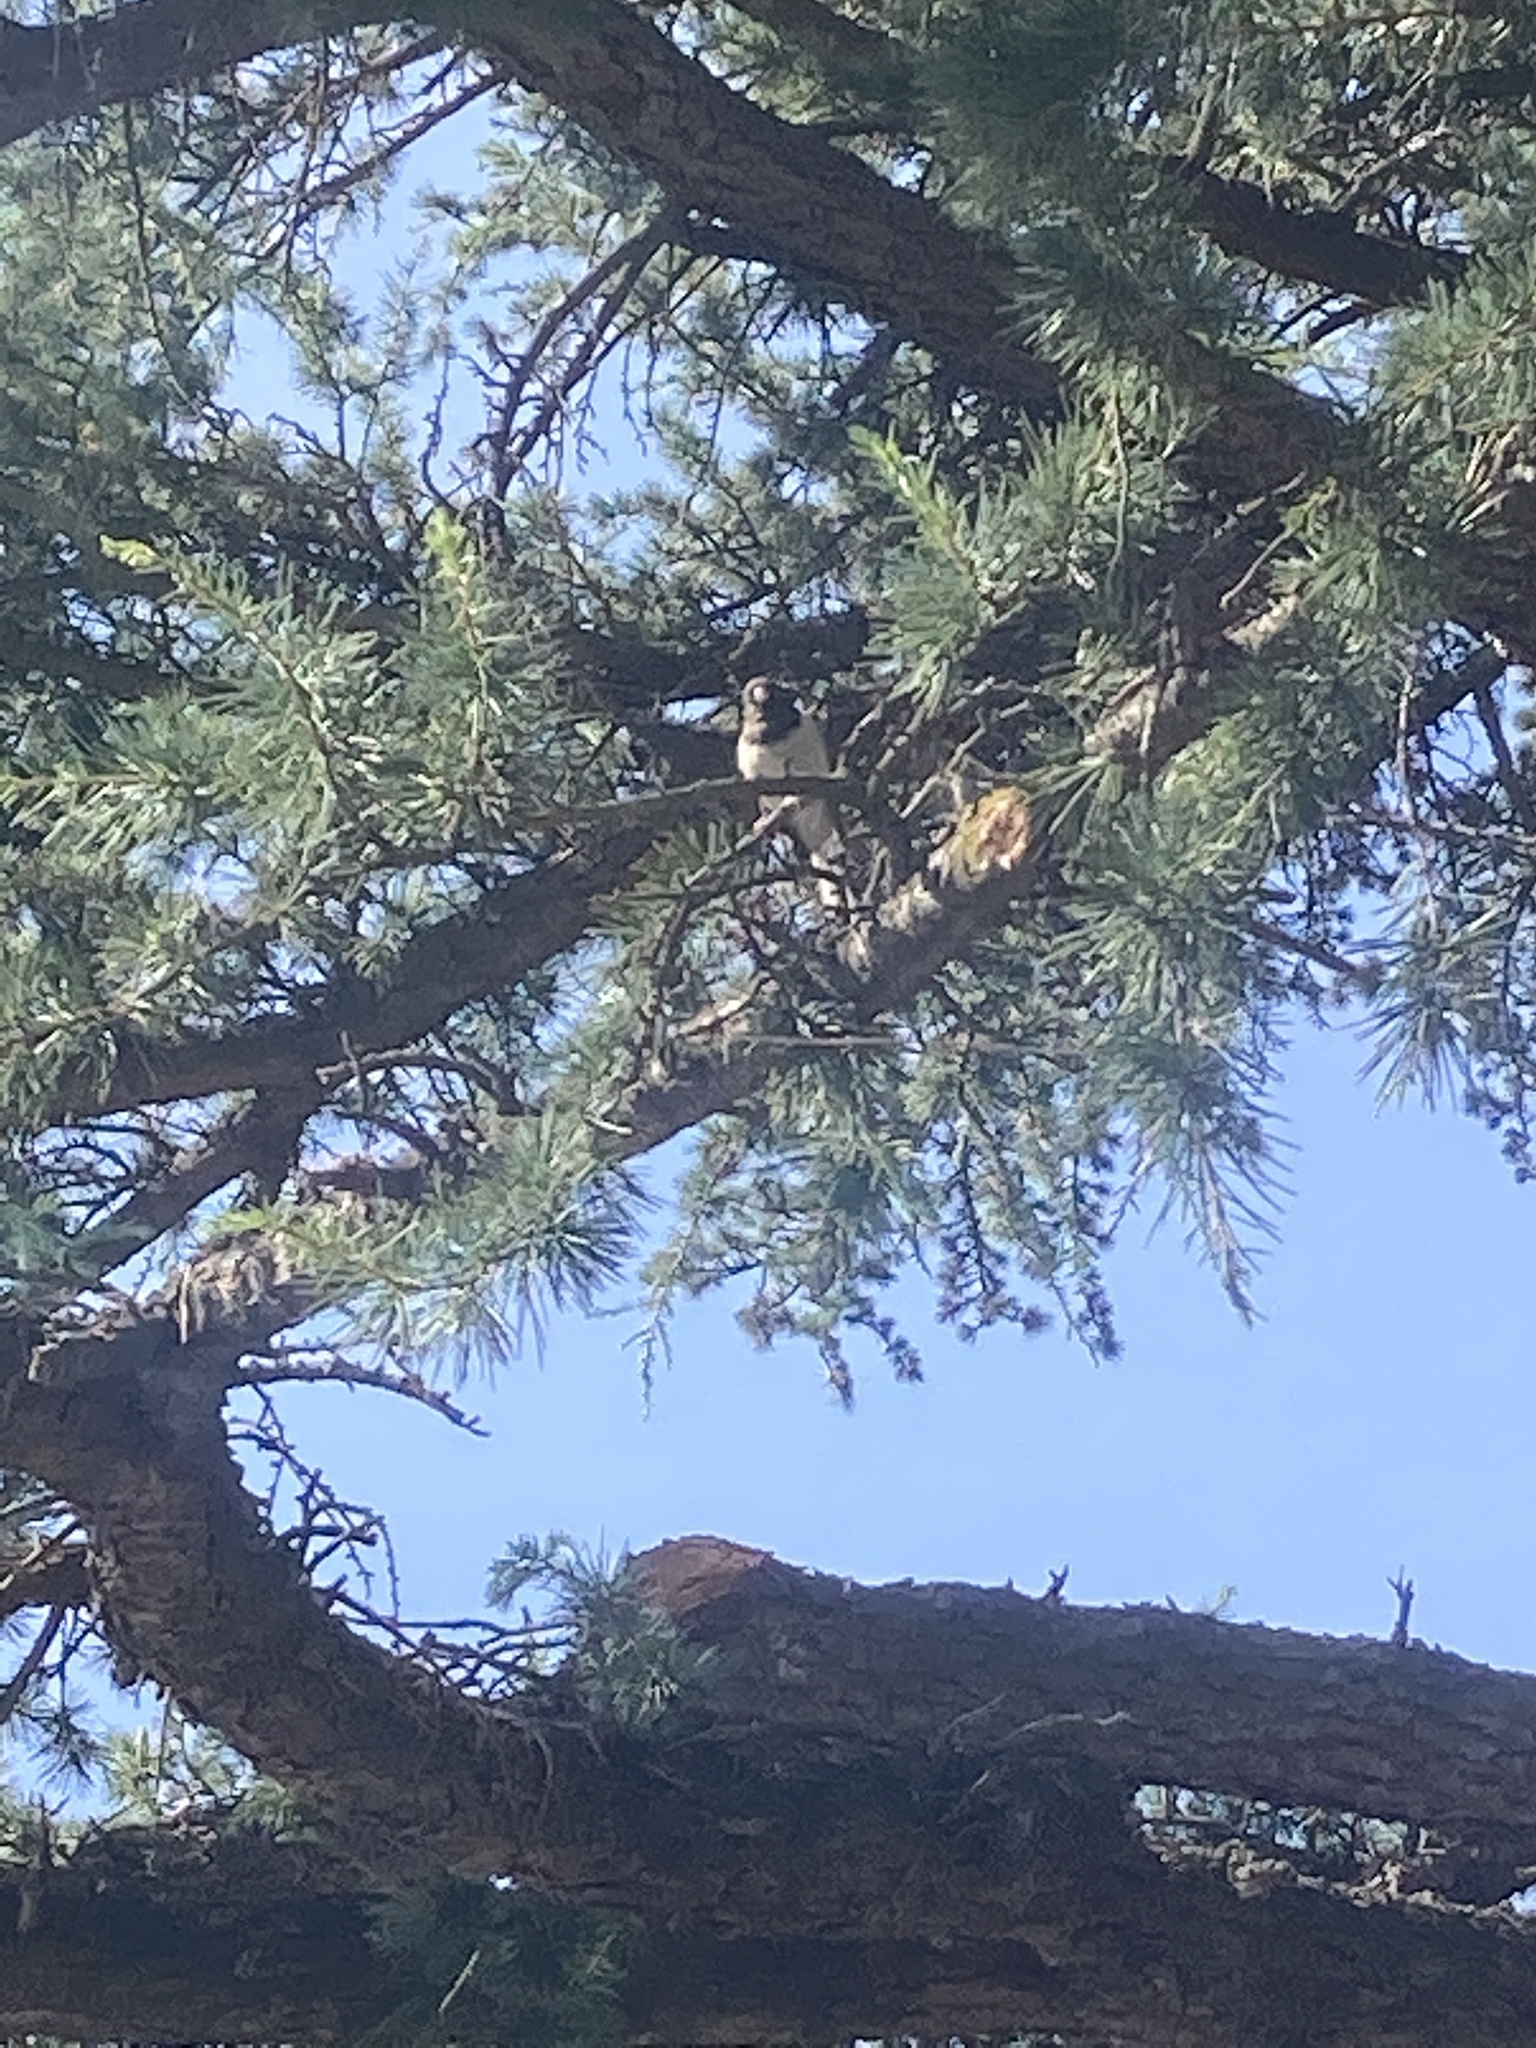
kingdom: Animalia
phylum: Chordata
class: Aves
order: Passeriformes
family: Passerellidae
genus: Junco
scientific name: Junco hyemalis
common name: Dark-eyed junco
